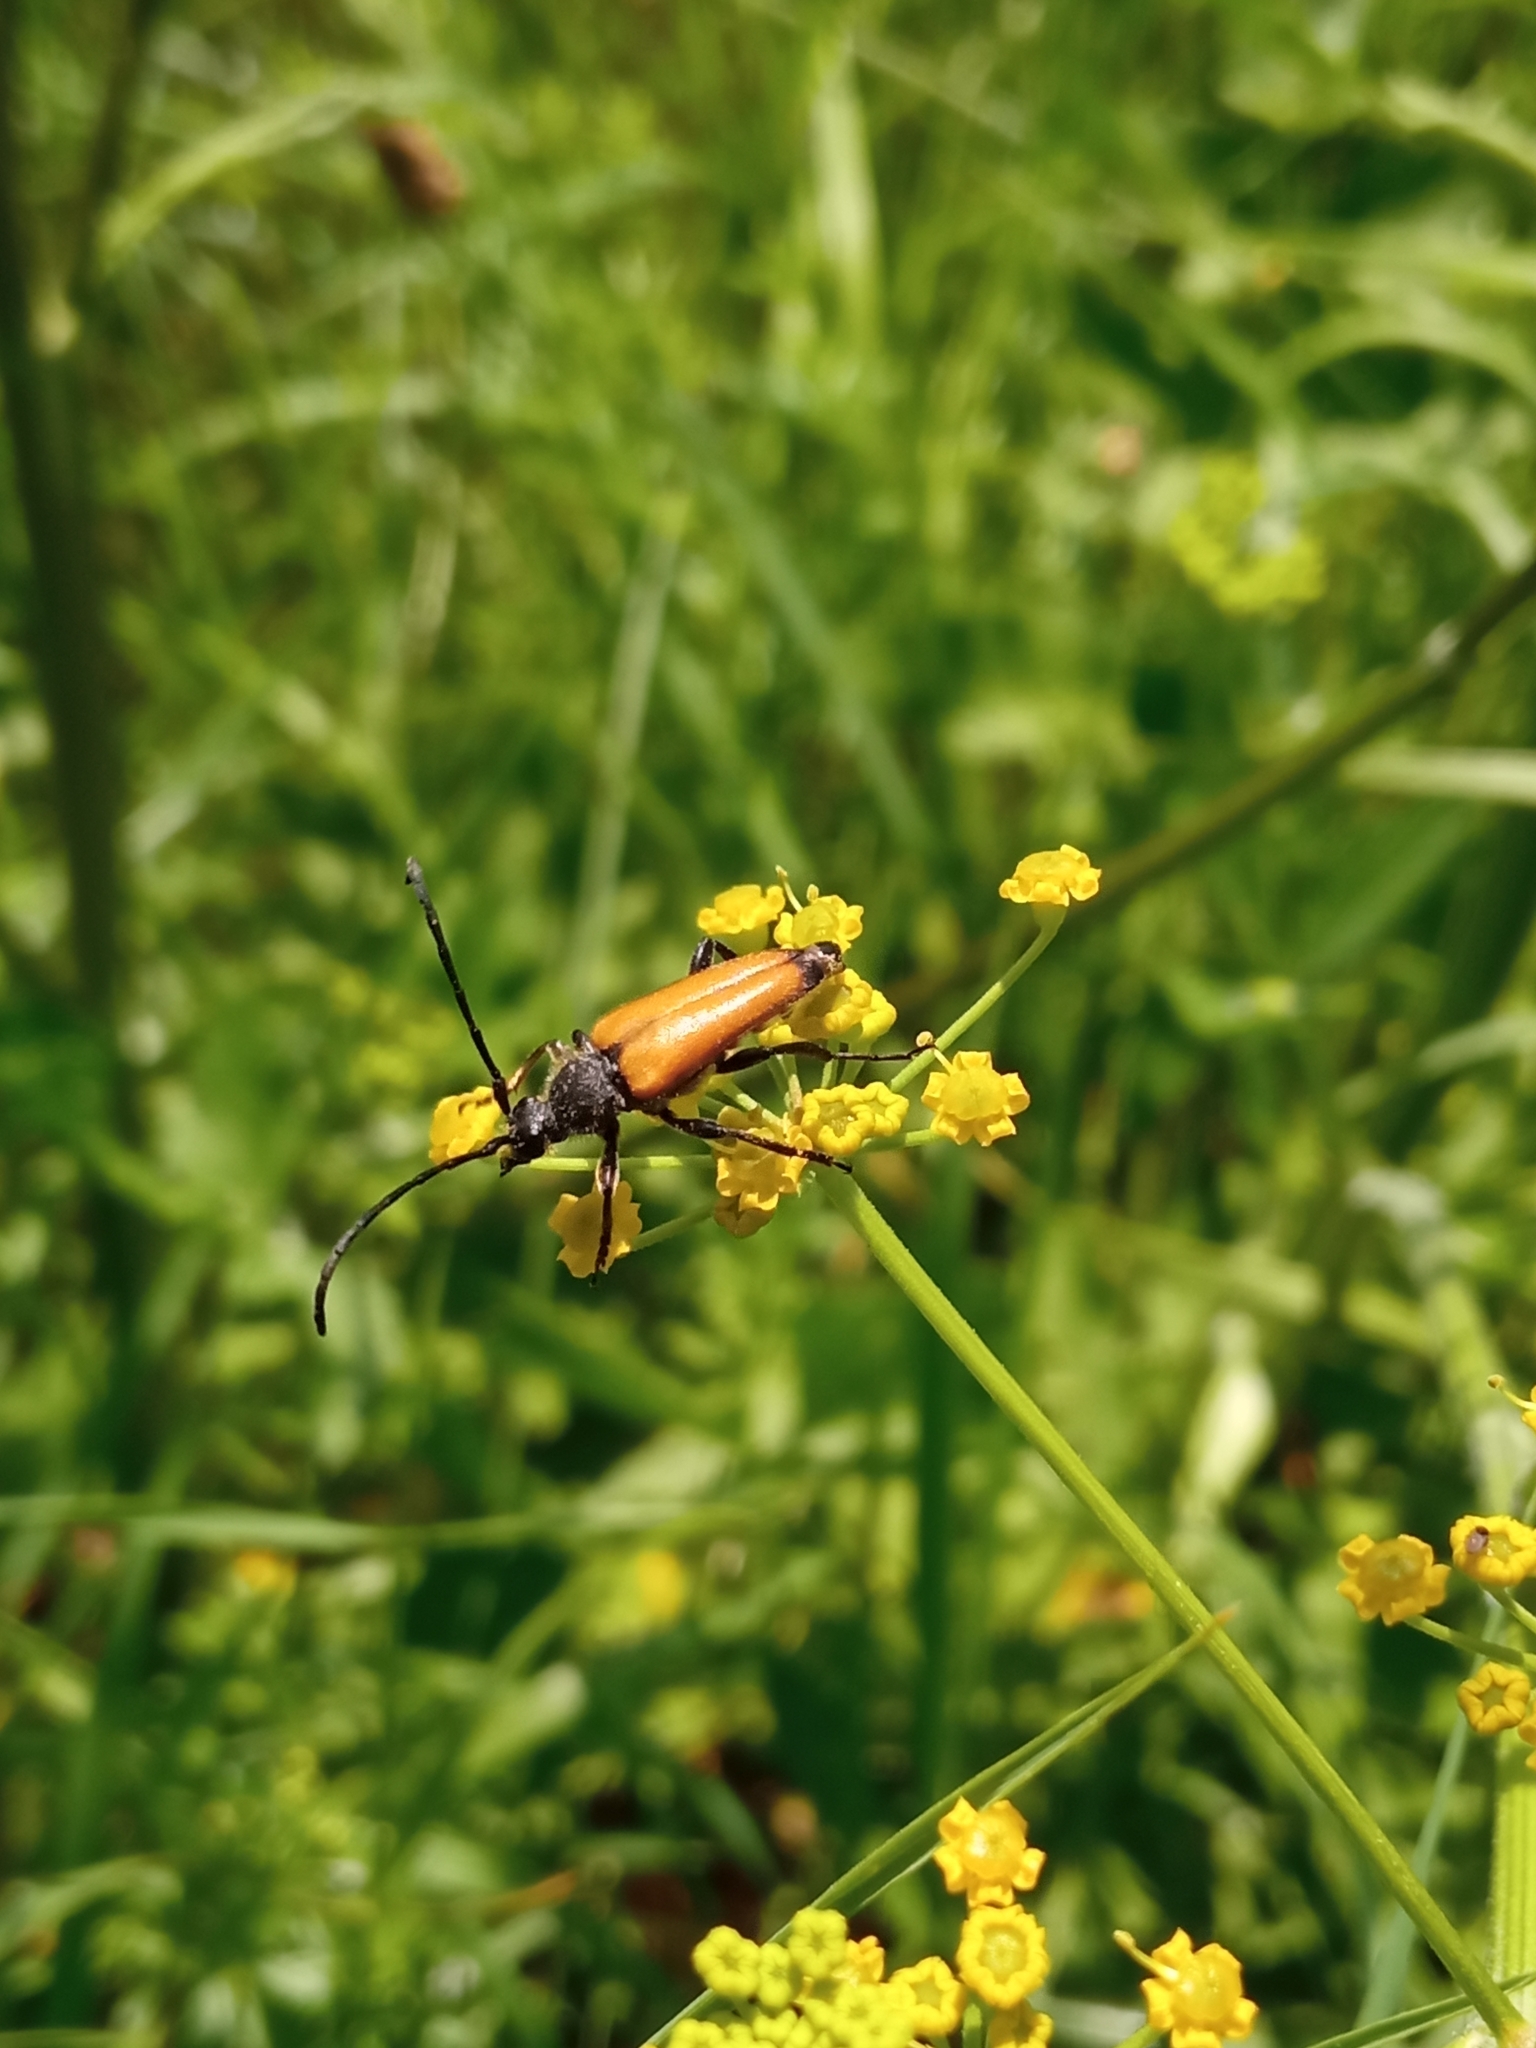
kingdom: Animalia
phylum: Arthropoda
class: Insecta
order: Coleoptera
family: Cerambycidae
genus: Paracorymbia
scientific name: Paracorymbia fulva
